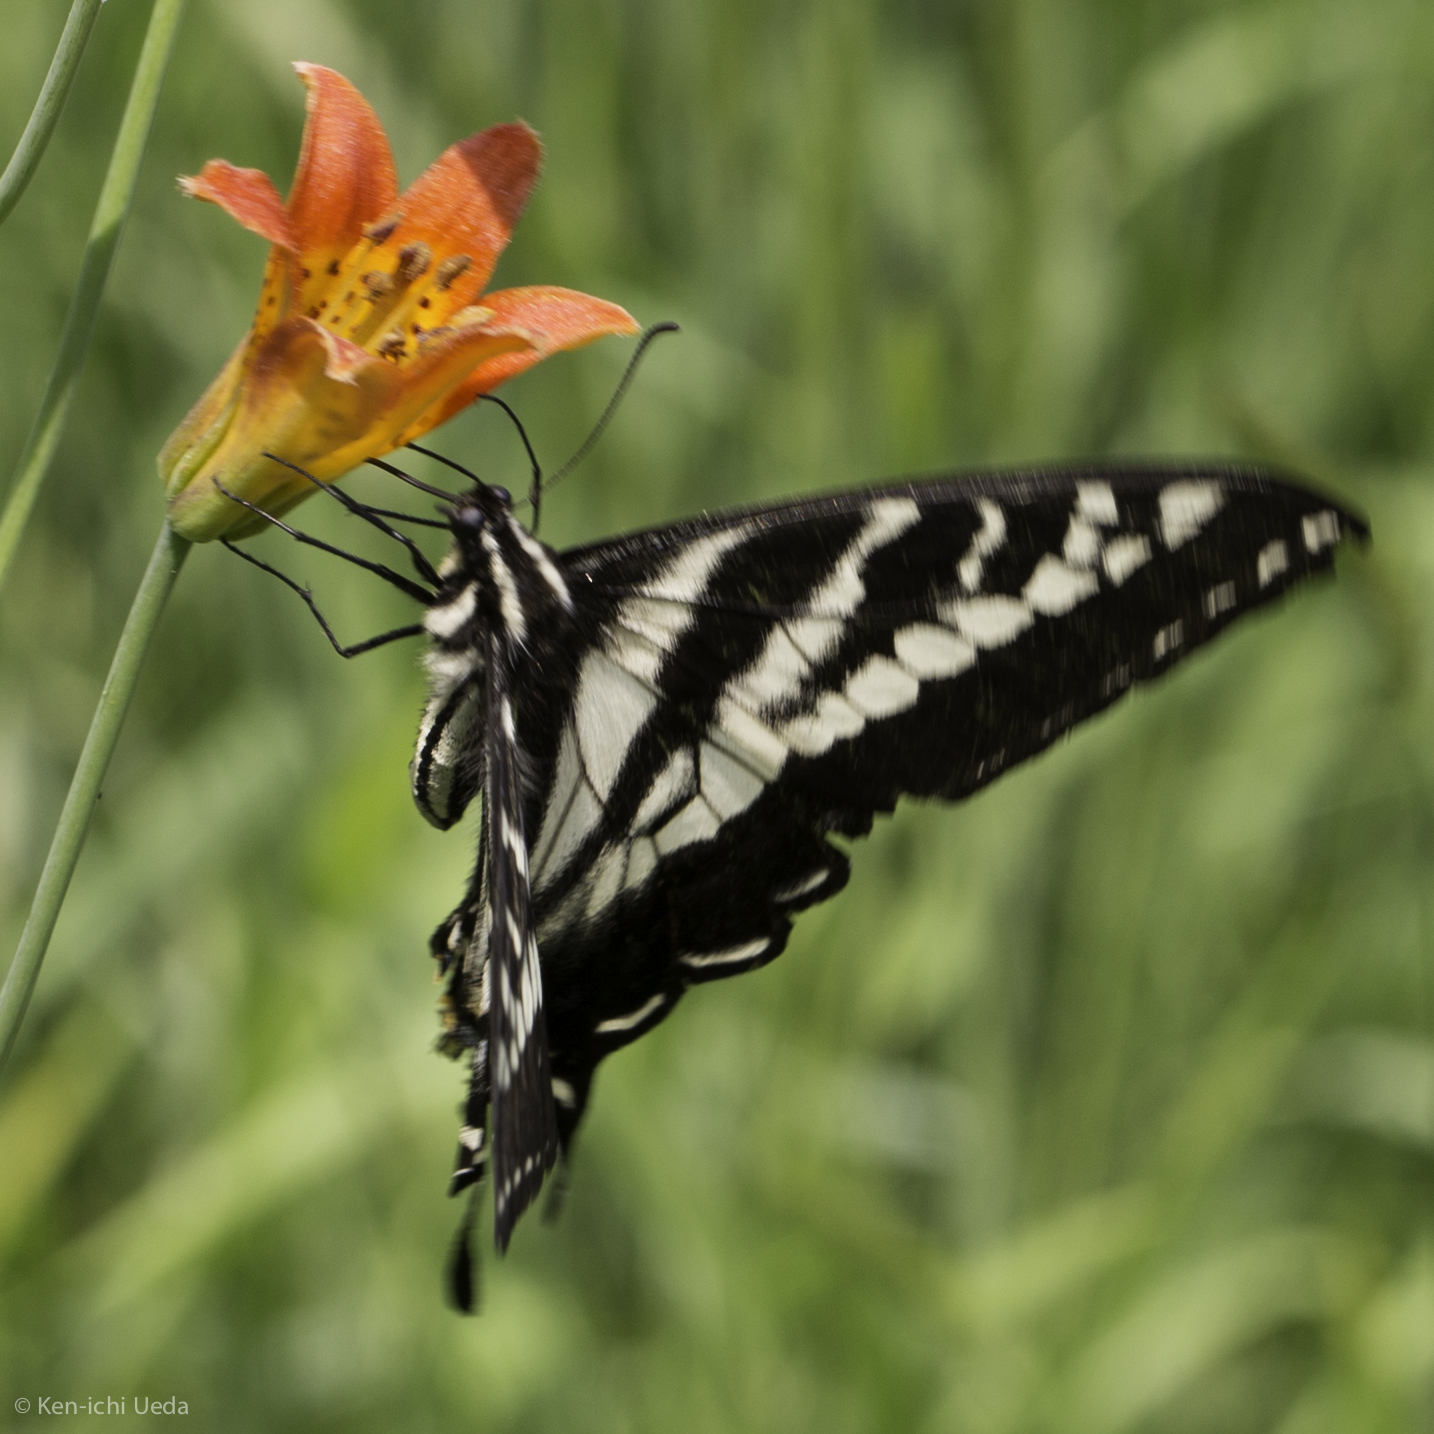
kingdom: Animalia
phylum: Arthropoda
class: Insecta
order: Lepidoptera
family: Papilionidae
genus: Papilio
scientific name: Papilio eurymedon
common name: Pale tiger swallowtail
